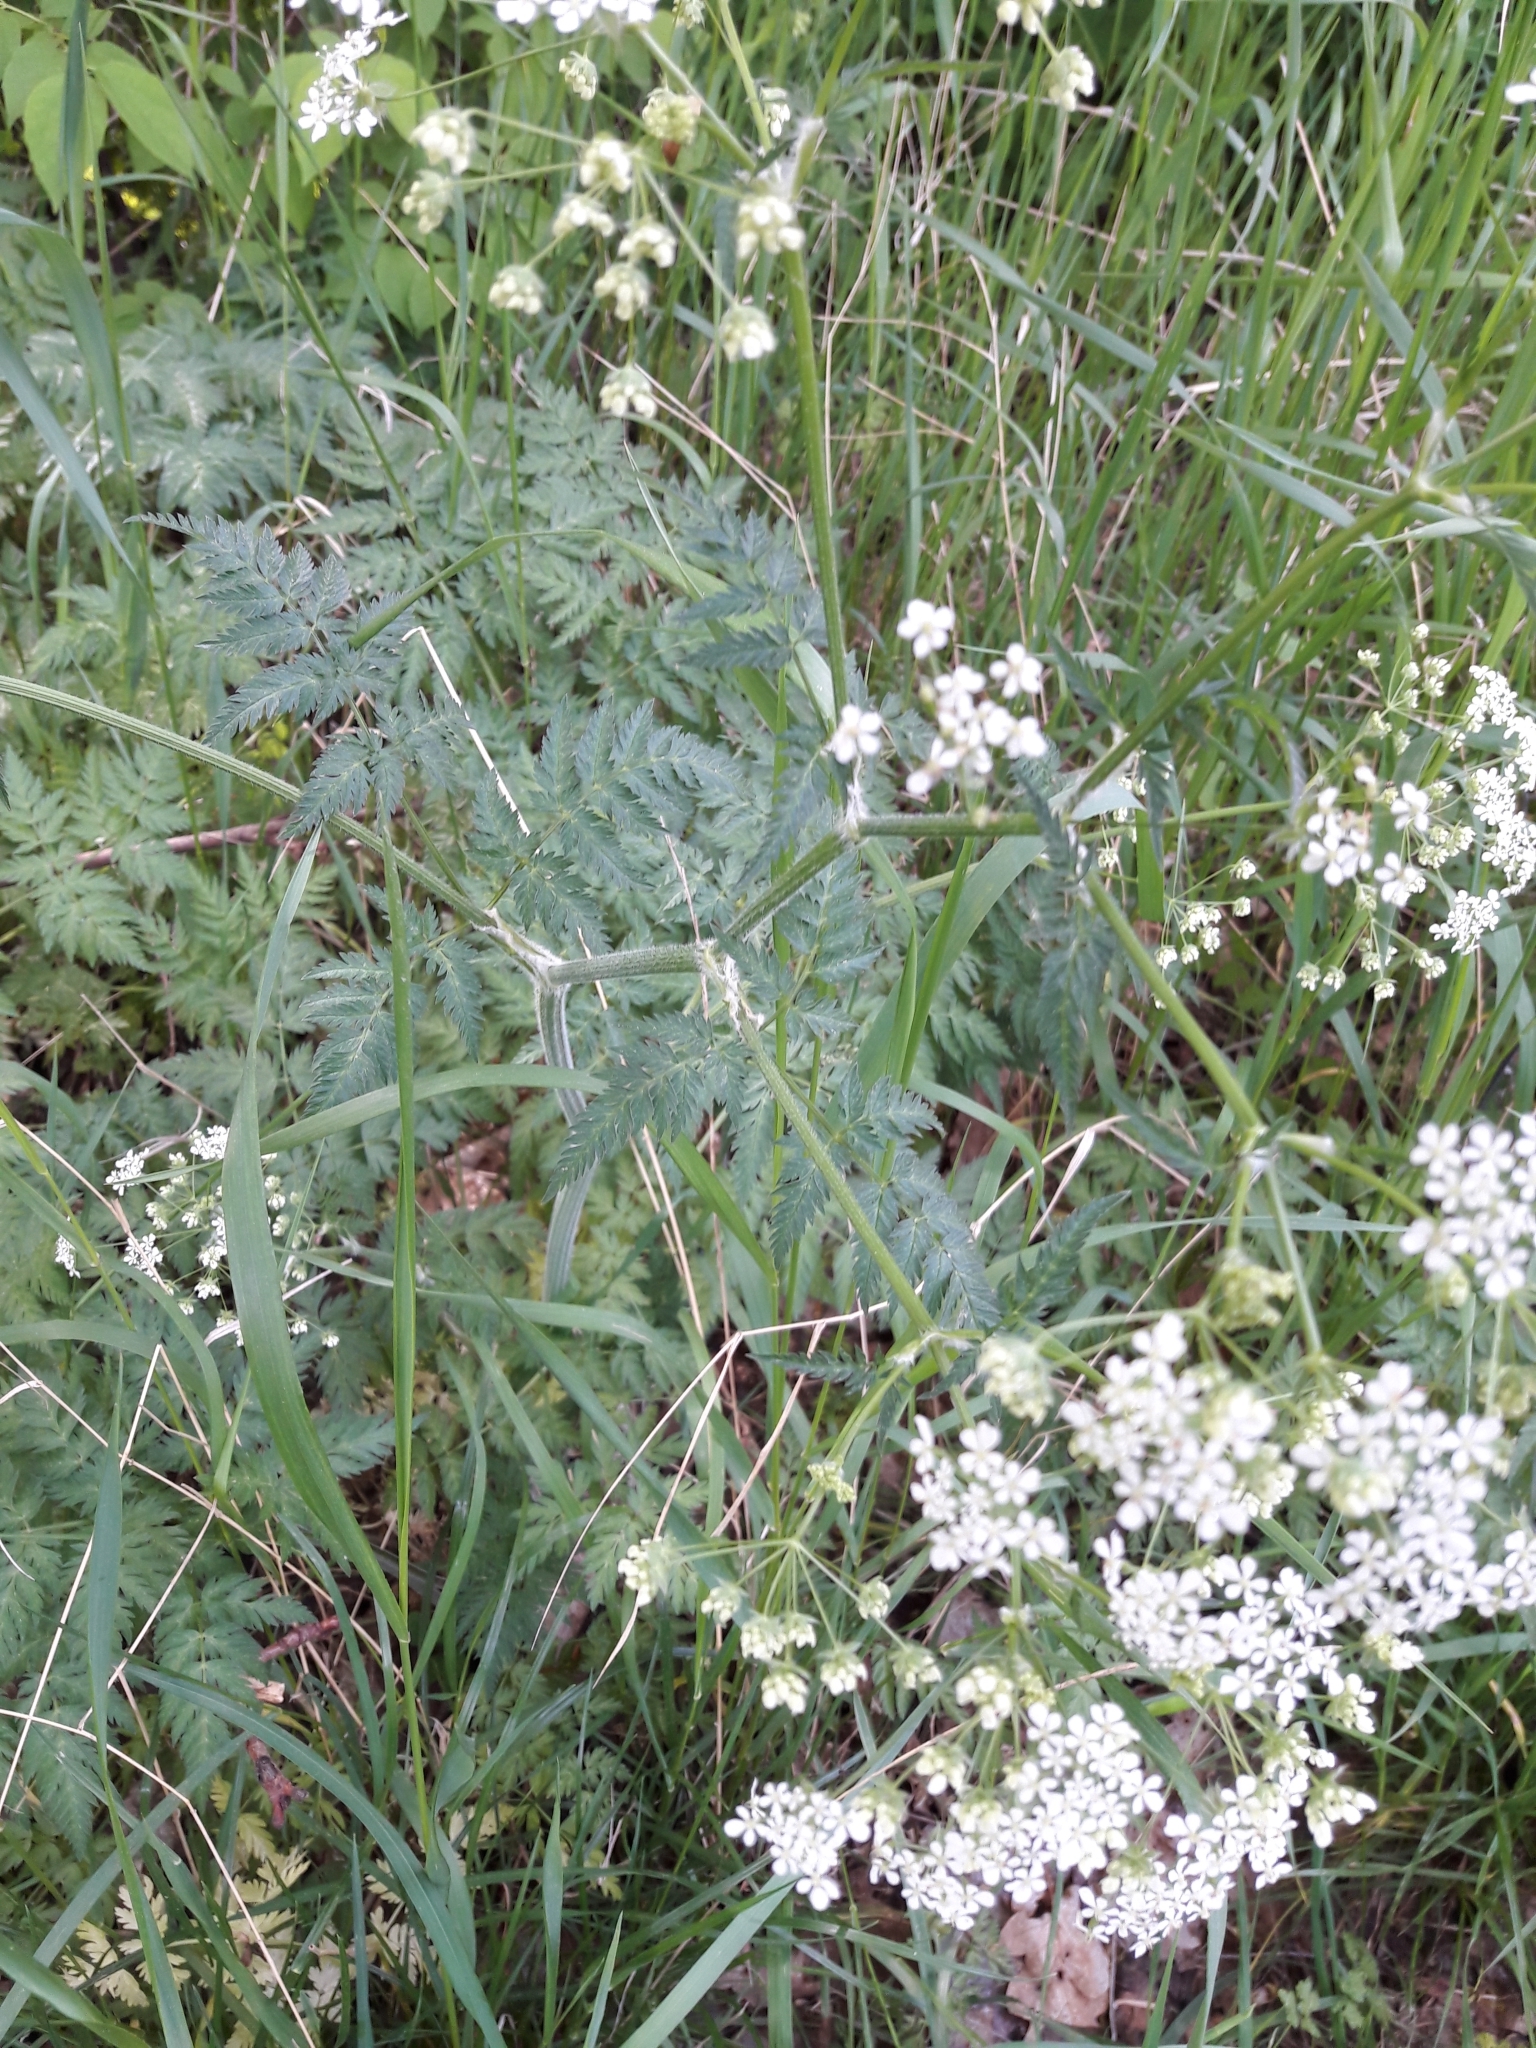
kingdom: Plantae
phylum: Tracheophyta
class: Magnoliopsida
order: Apiales
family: Apiaceae
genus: Anthriscus
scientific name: Anthriscus sylvestris
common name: Cow parsley
